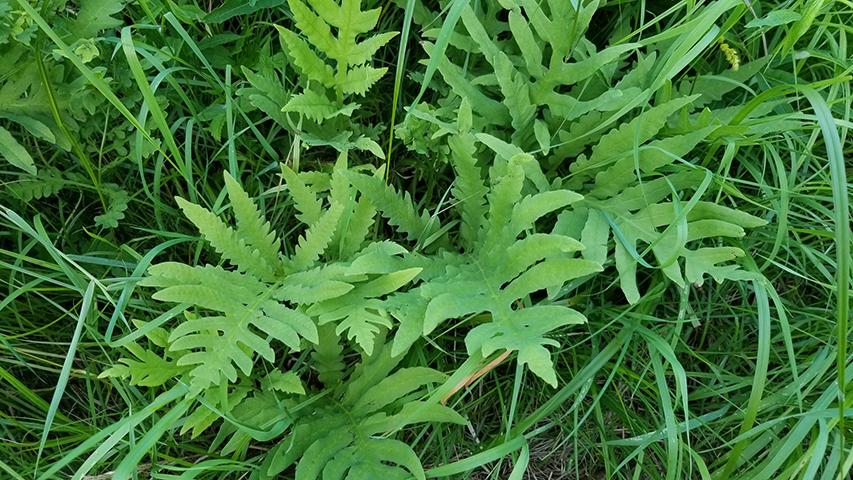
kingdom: Plantae
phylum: Tracheophyta
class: Polypodiopsida
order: Polypodiales
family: Onocleaceae
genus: Onoclea
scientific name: Onoclea sensibilis
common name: Sensitive fern
